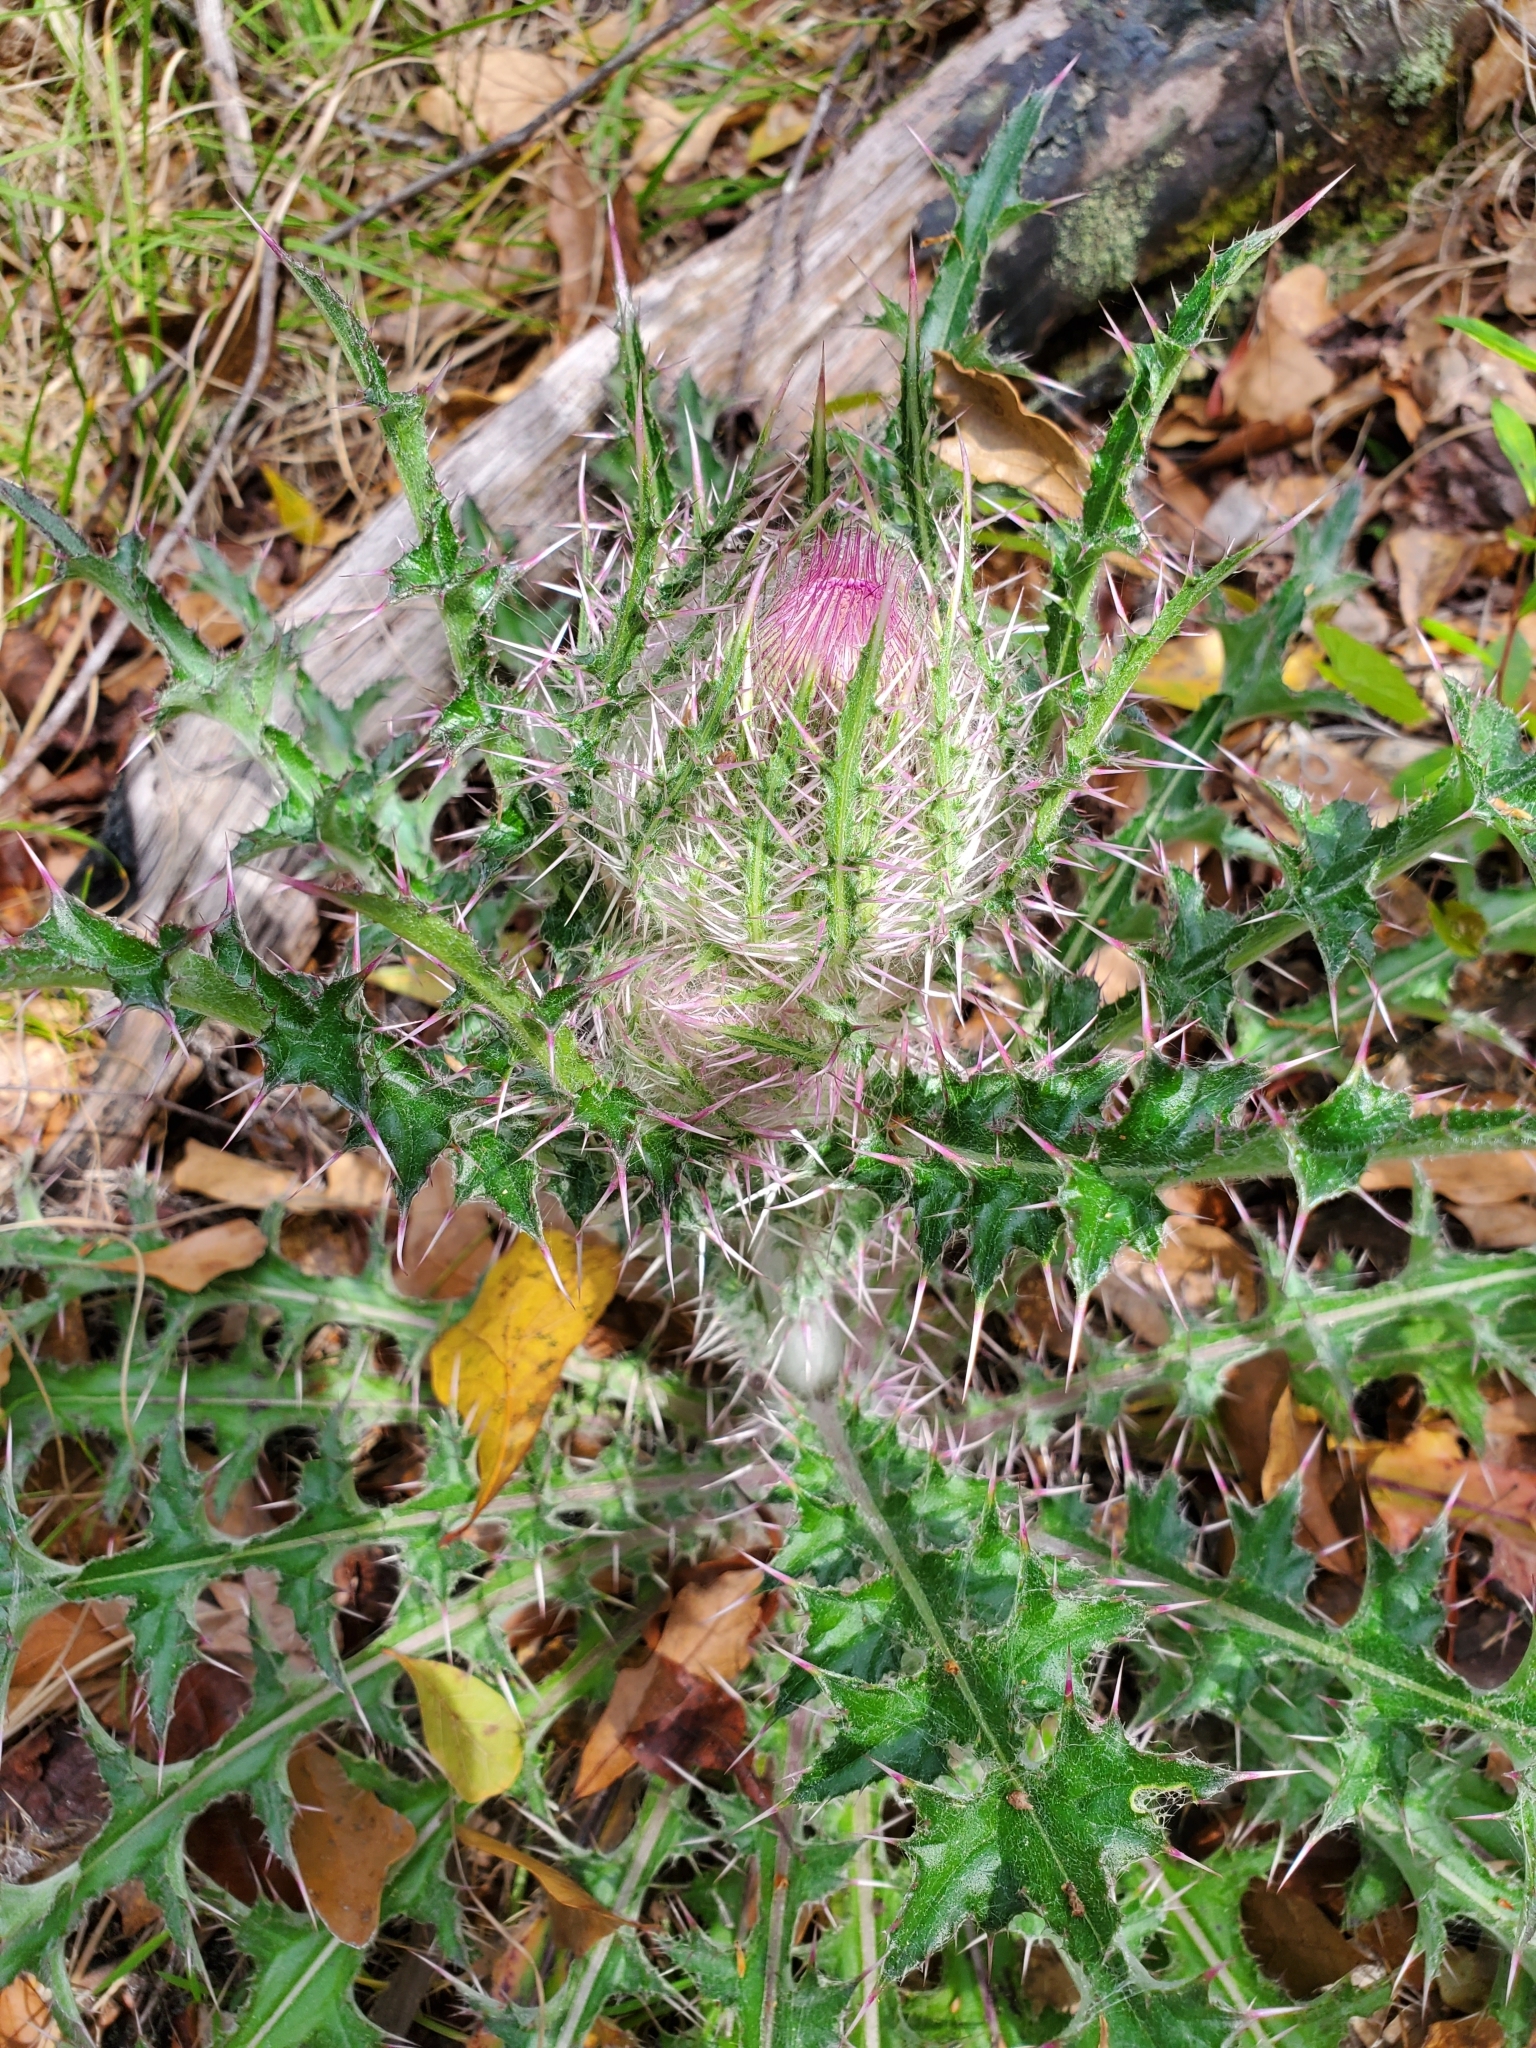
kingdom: Plantae
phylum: Tracheophyta
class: Magnoliopsida
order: Asterales
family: Asteraceae
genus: Cirsium
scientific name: Cirsium horridulum
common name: Bristly thistle
